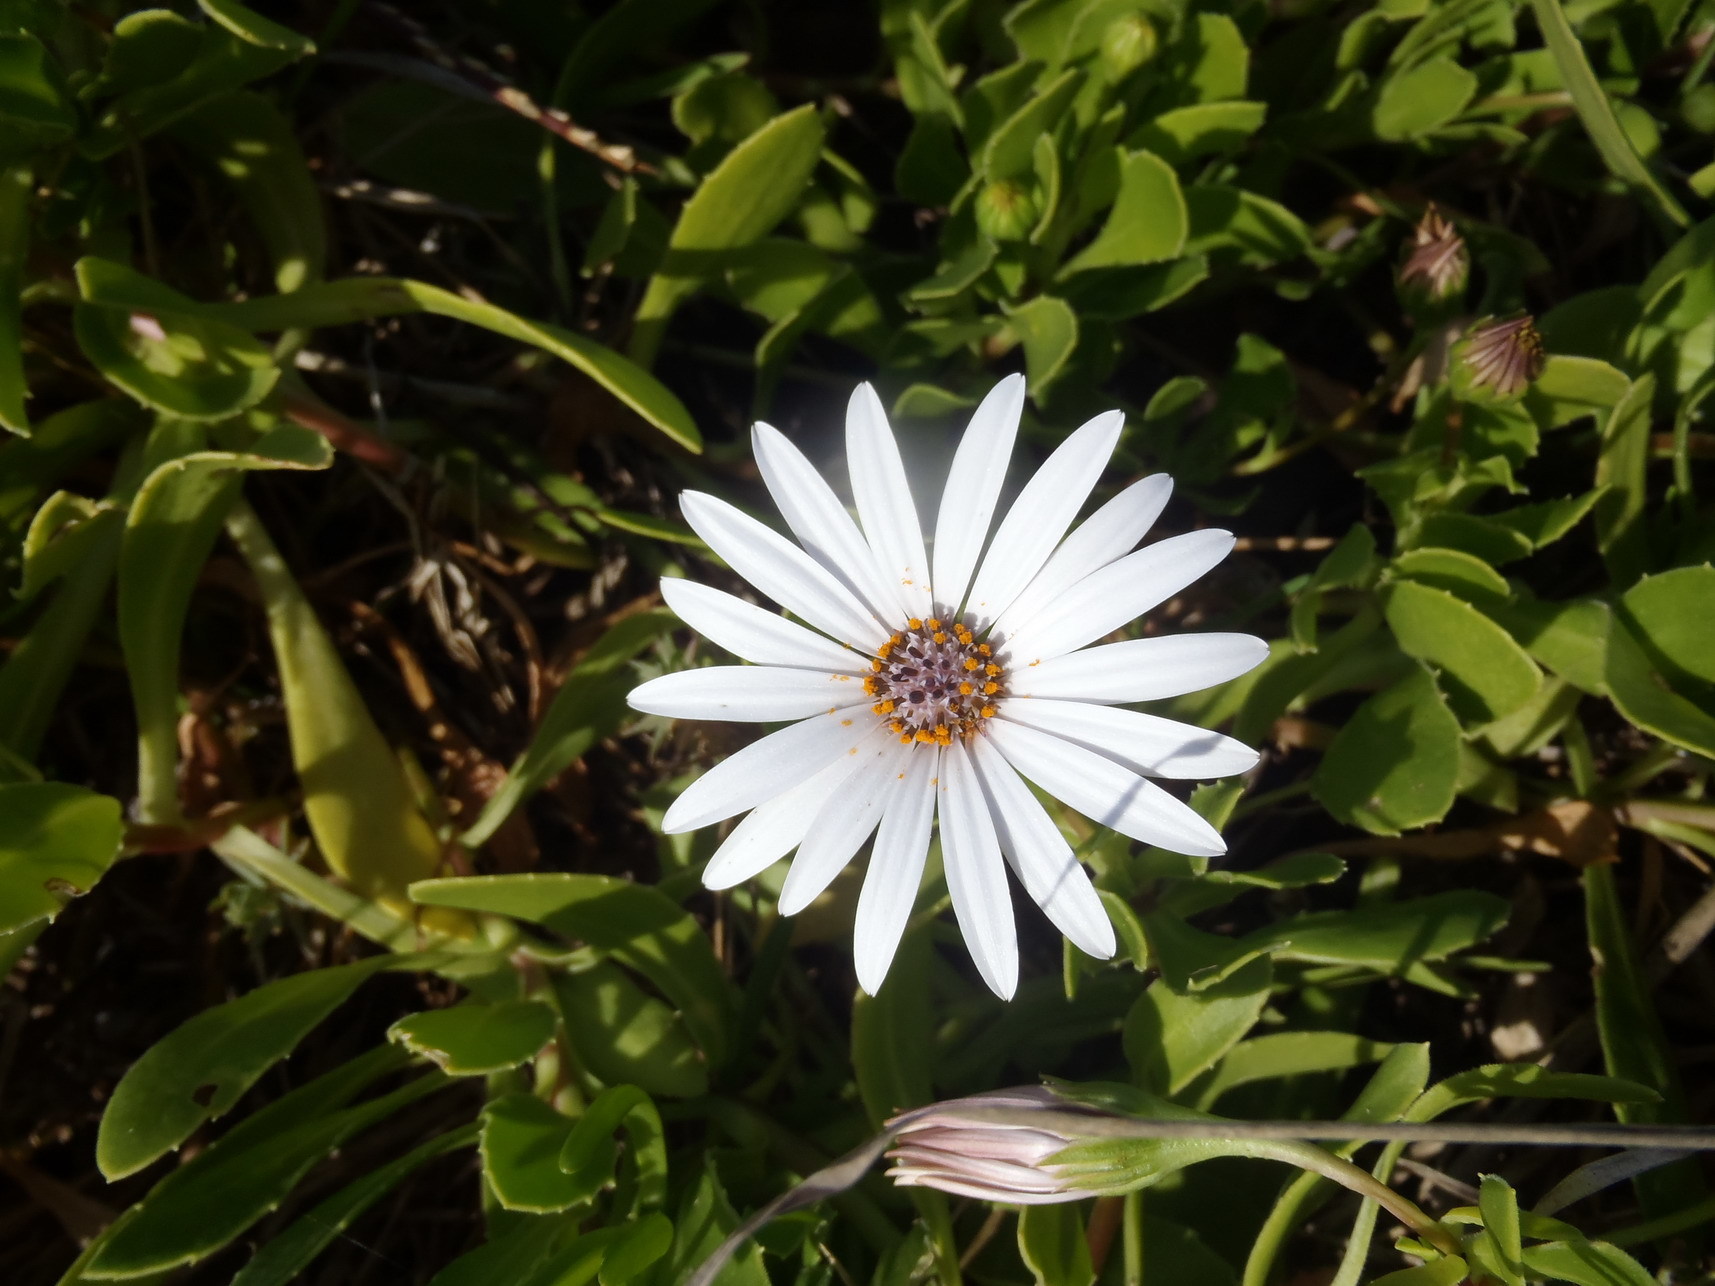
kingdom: Plantae
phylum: Tracheophyta
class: Magnoliopsida
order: Asterales
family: Asteraceae
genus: Dimorphotheca
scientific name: Dimorphotheca fruticosa
